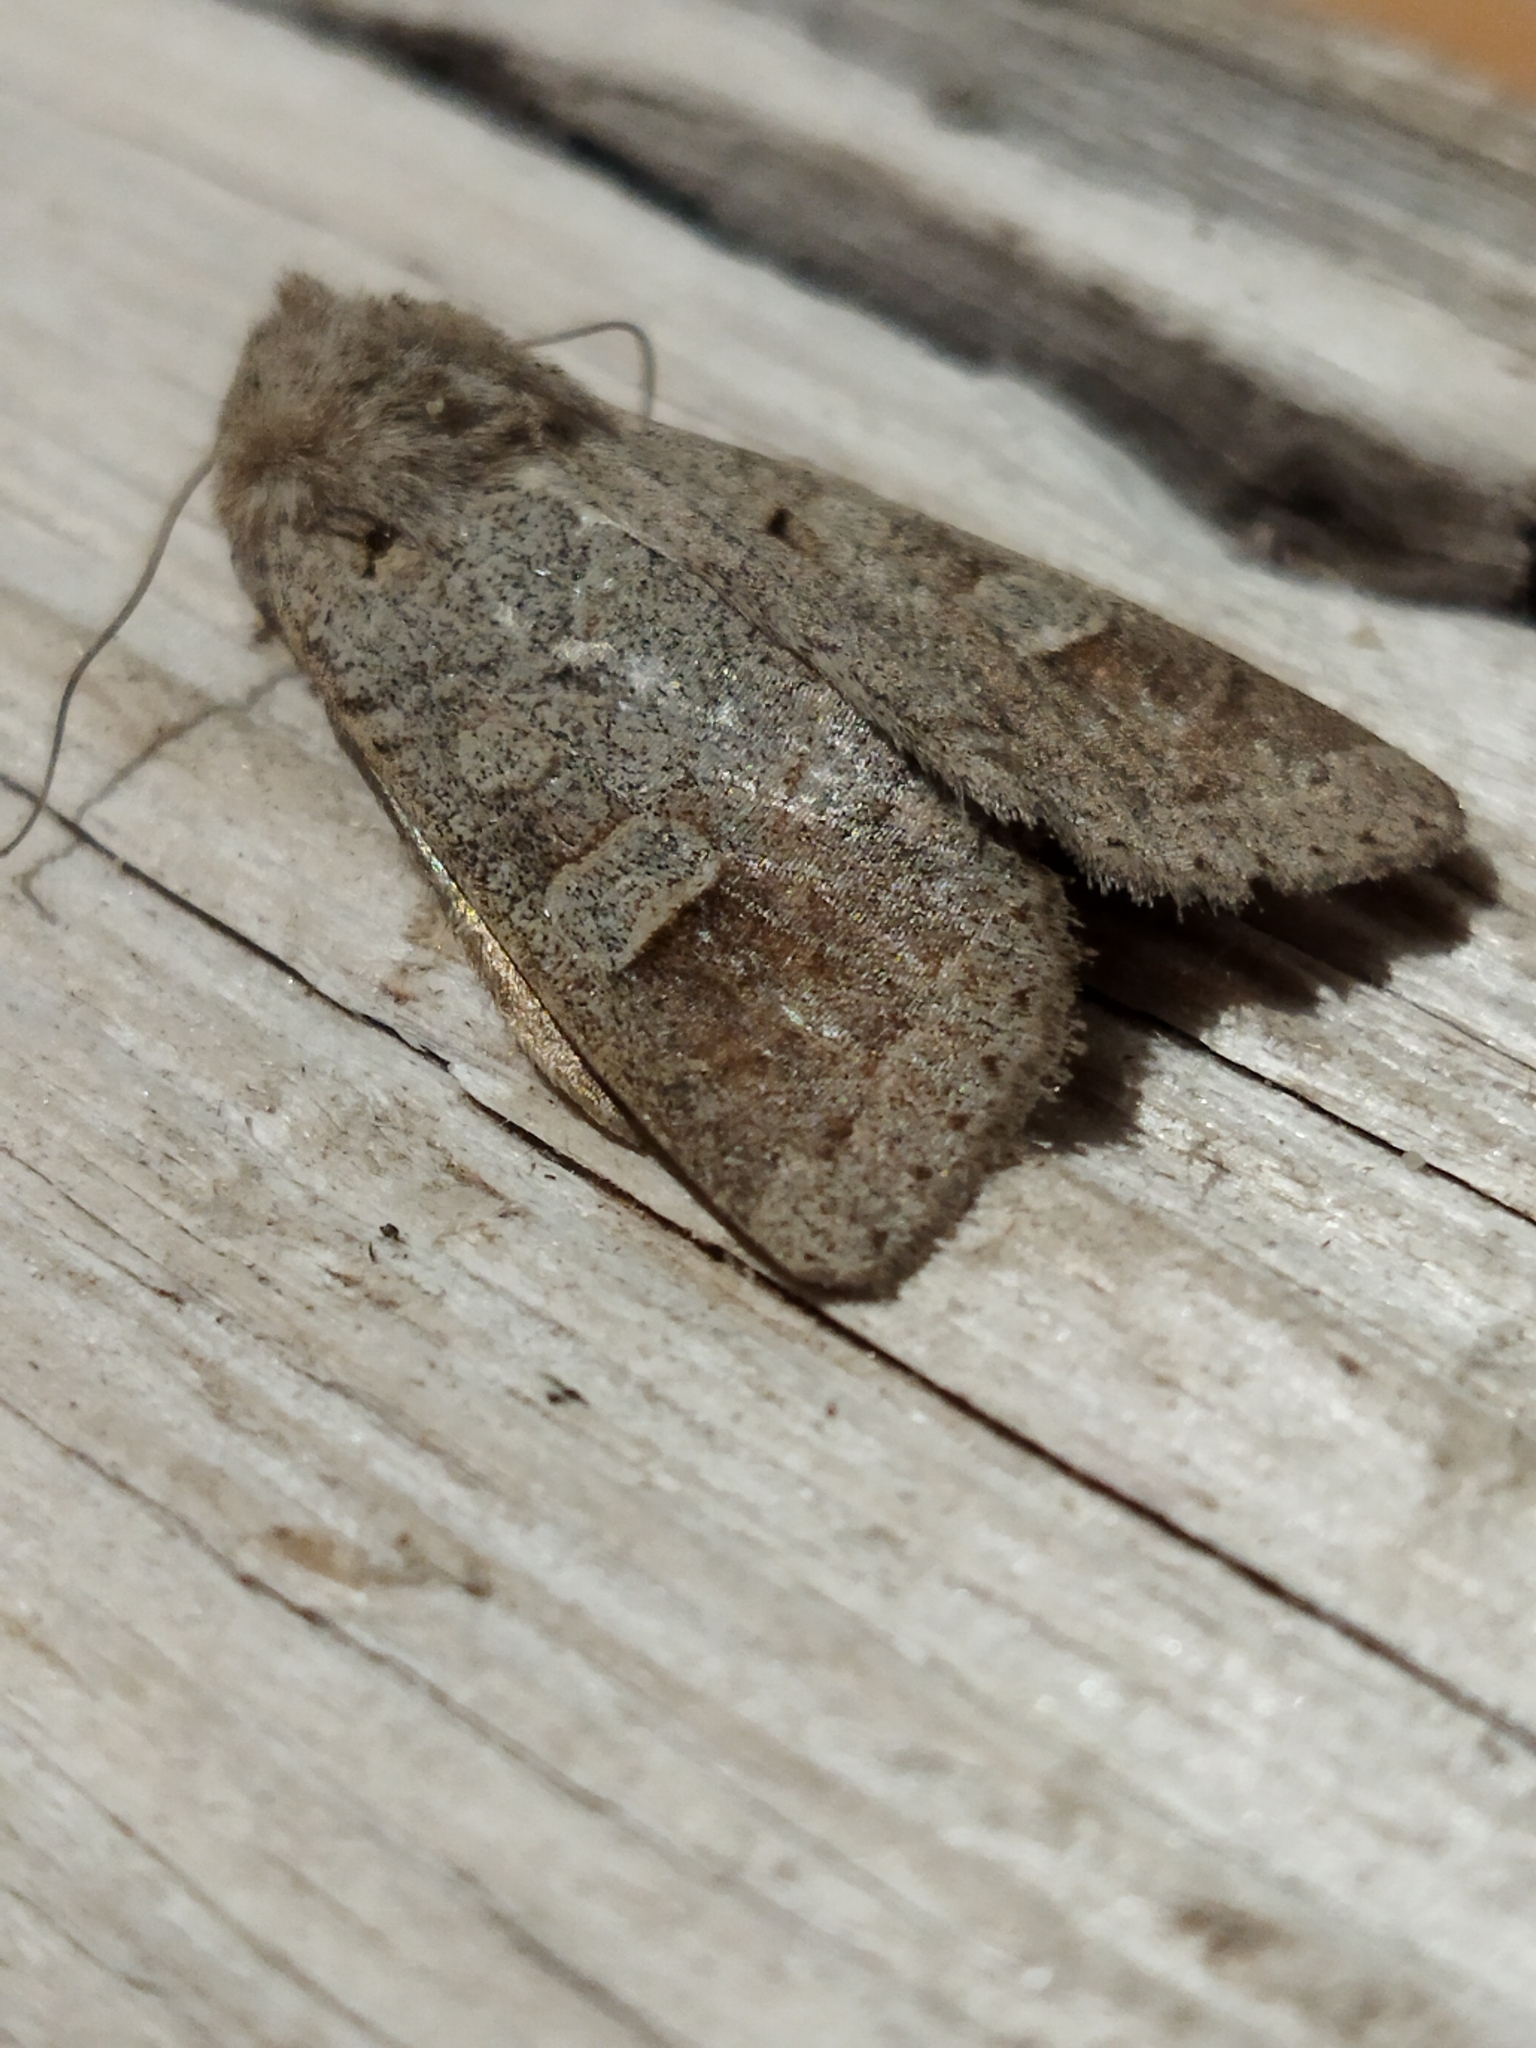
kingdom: Animalia
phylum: Arthropoda
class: Insecta
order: Lepidoptera
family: Noctuidae
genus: Ammoconia
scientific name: Ammoconia caecimacula
